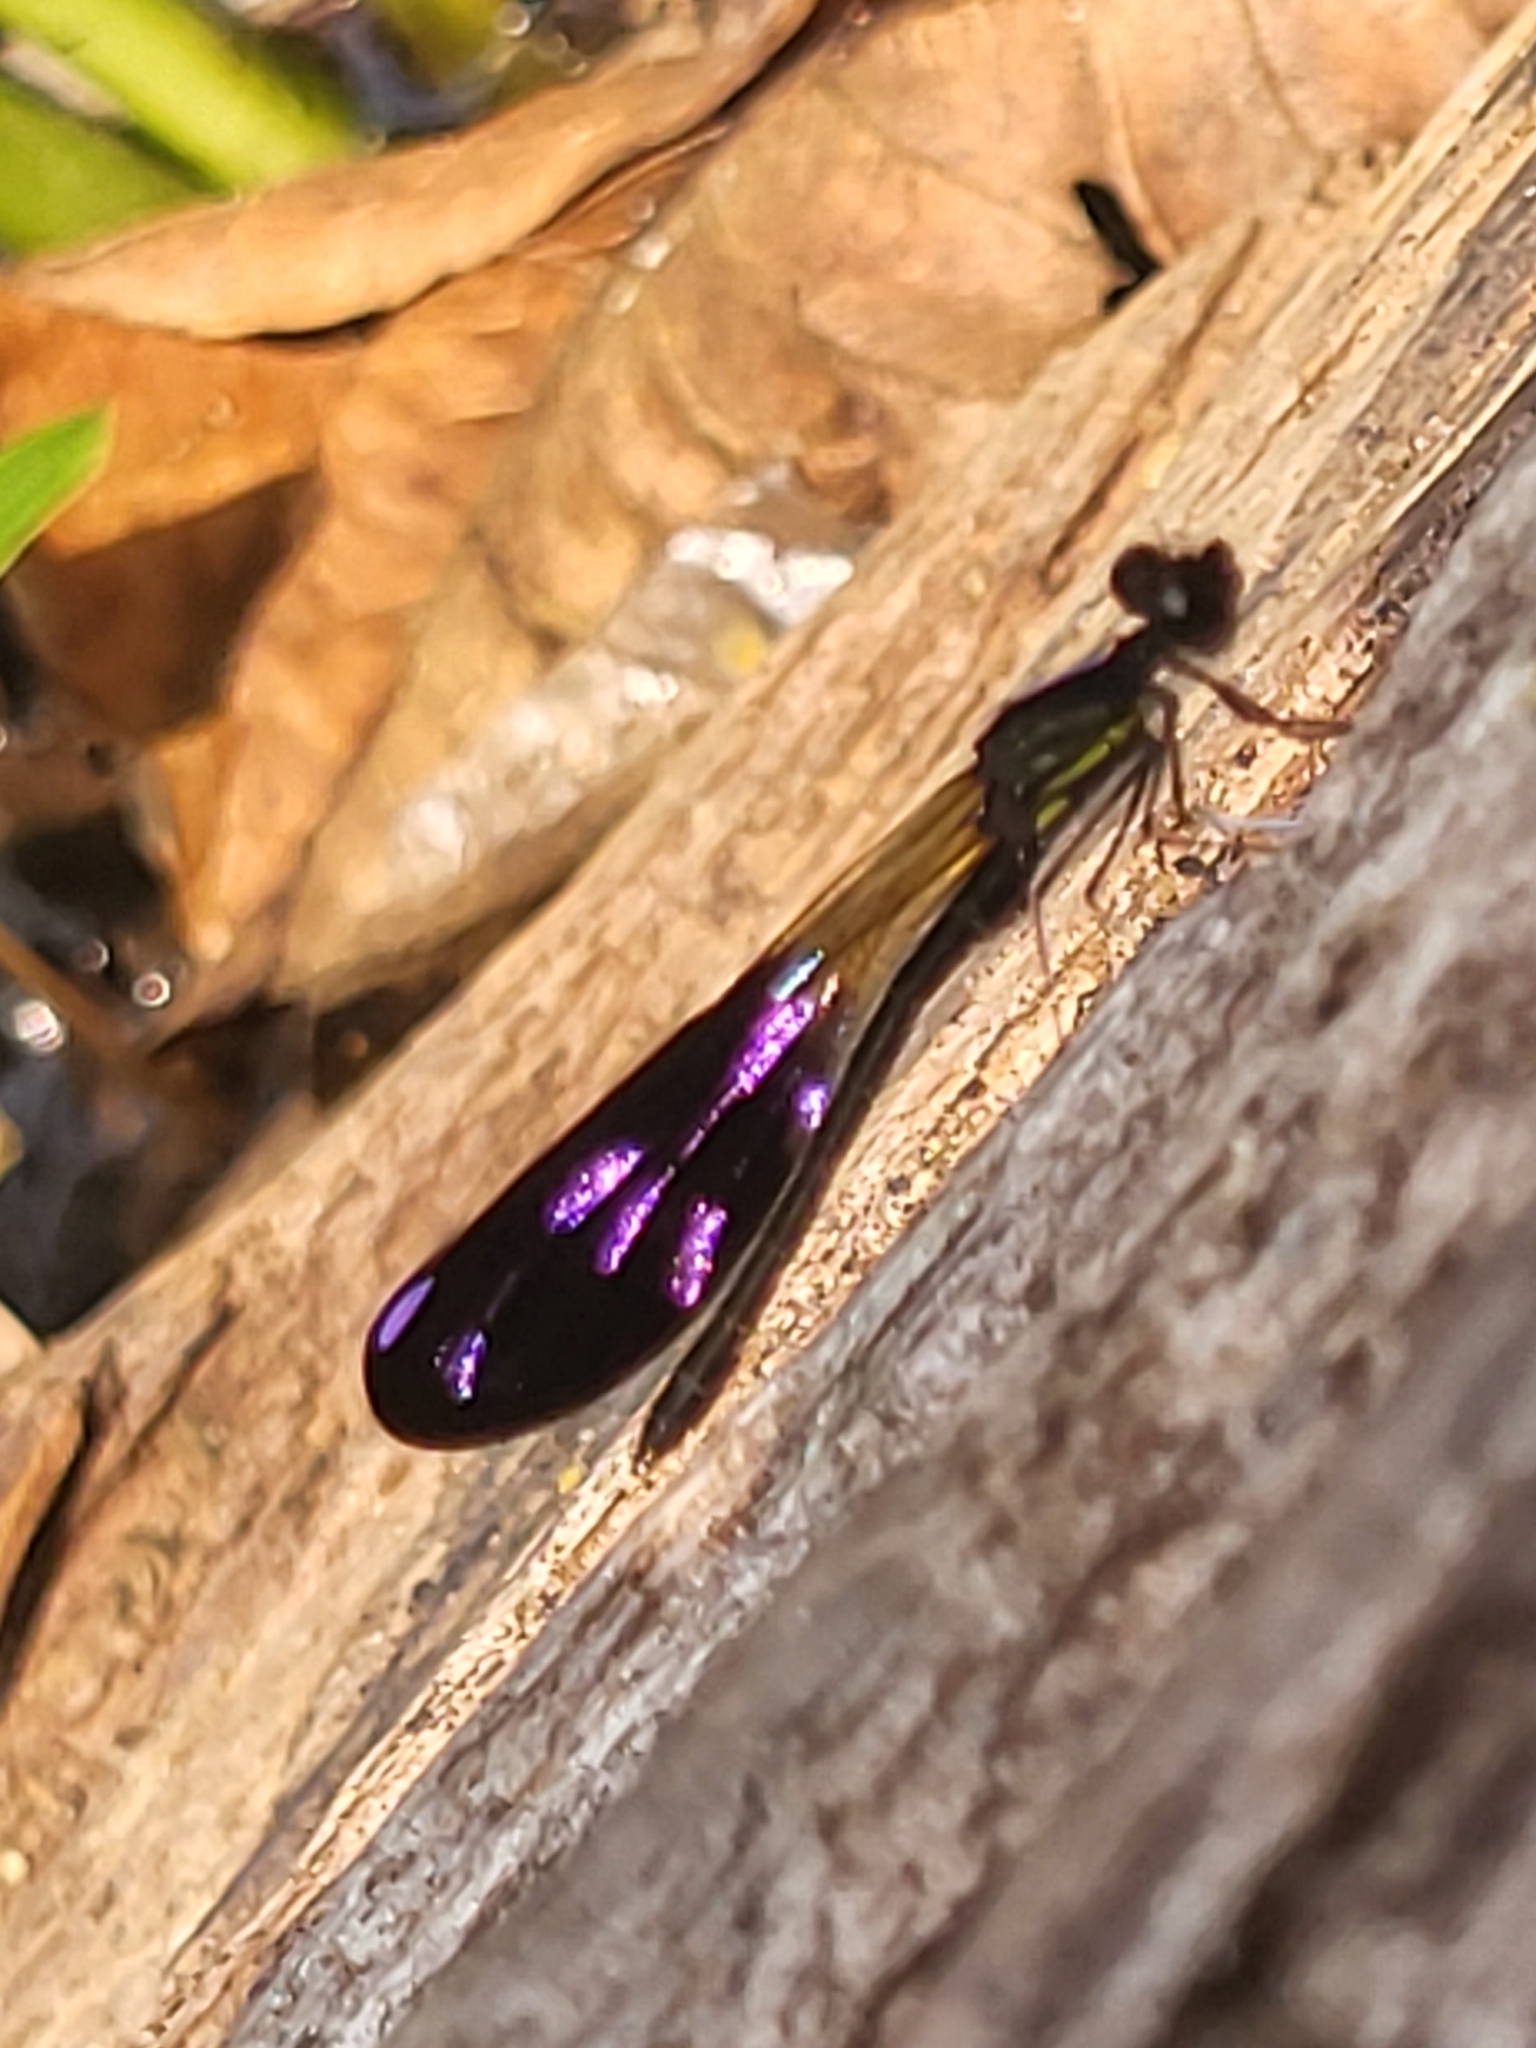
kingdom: Animalia
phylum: Arthropoda
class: Insecta
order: Odonata
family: Chlorocyphidae
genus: Aristocypha
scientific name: Aristocypha fenestrella
